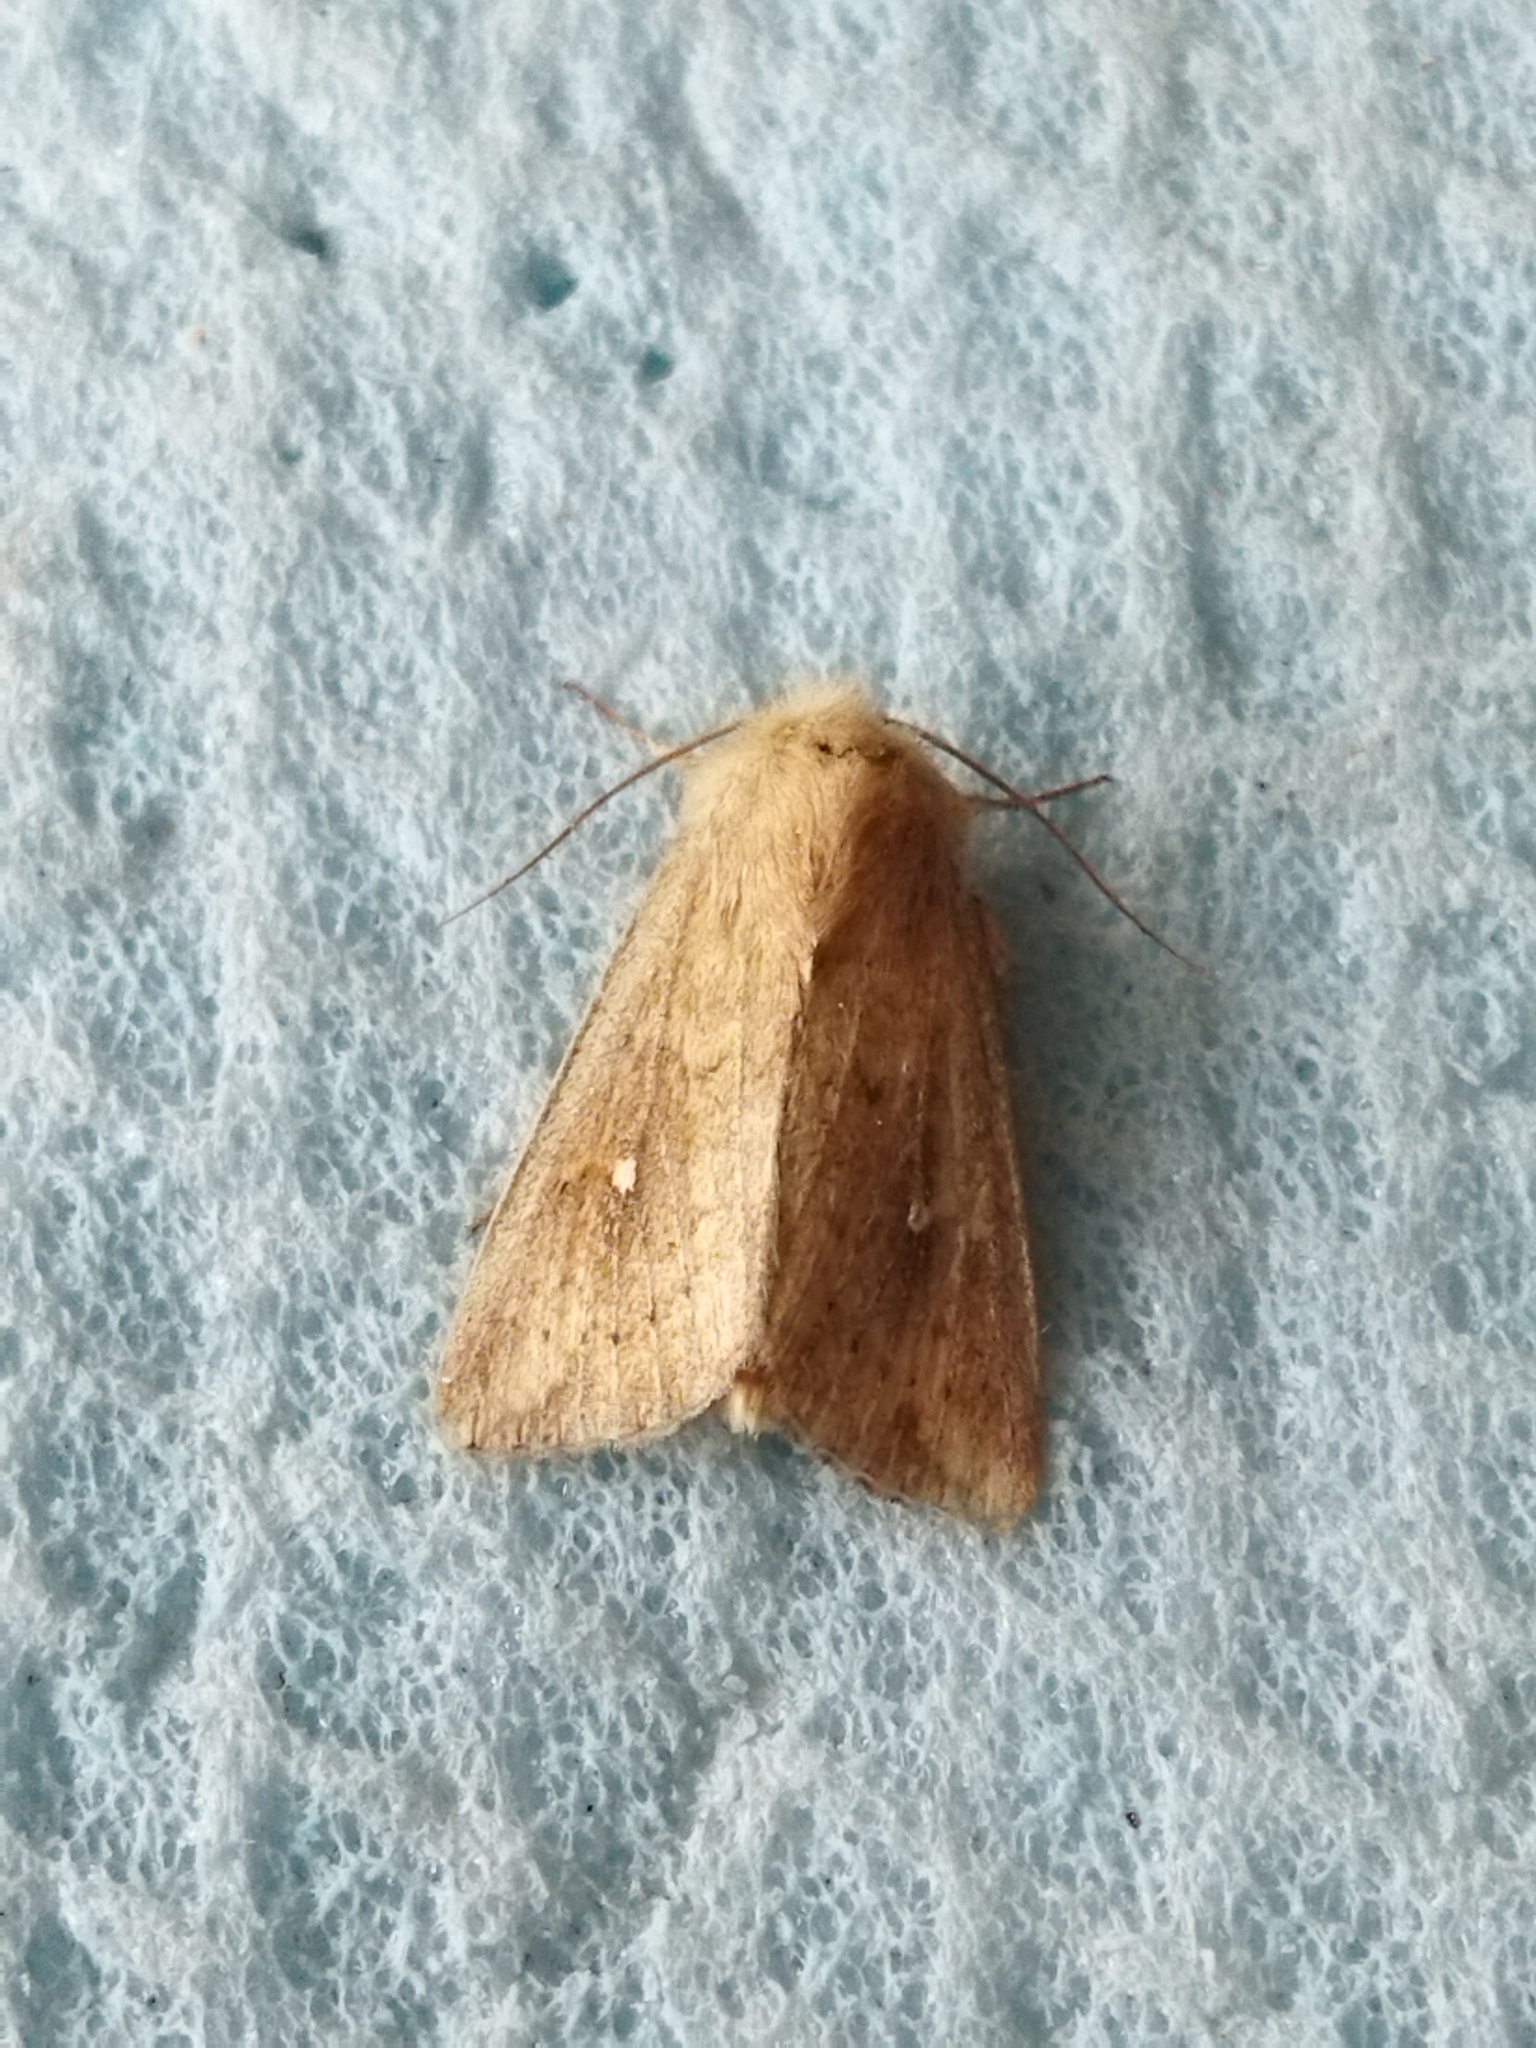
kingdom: Animalia
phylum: Arthropoda
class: Insecta
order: Lepidoptera
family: Noctuidae
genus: Mythimna
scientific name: Mythimna albipuncta
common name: White-point
